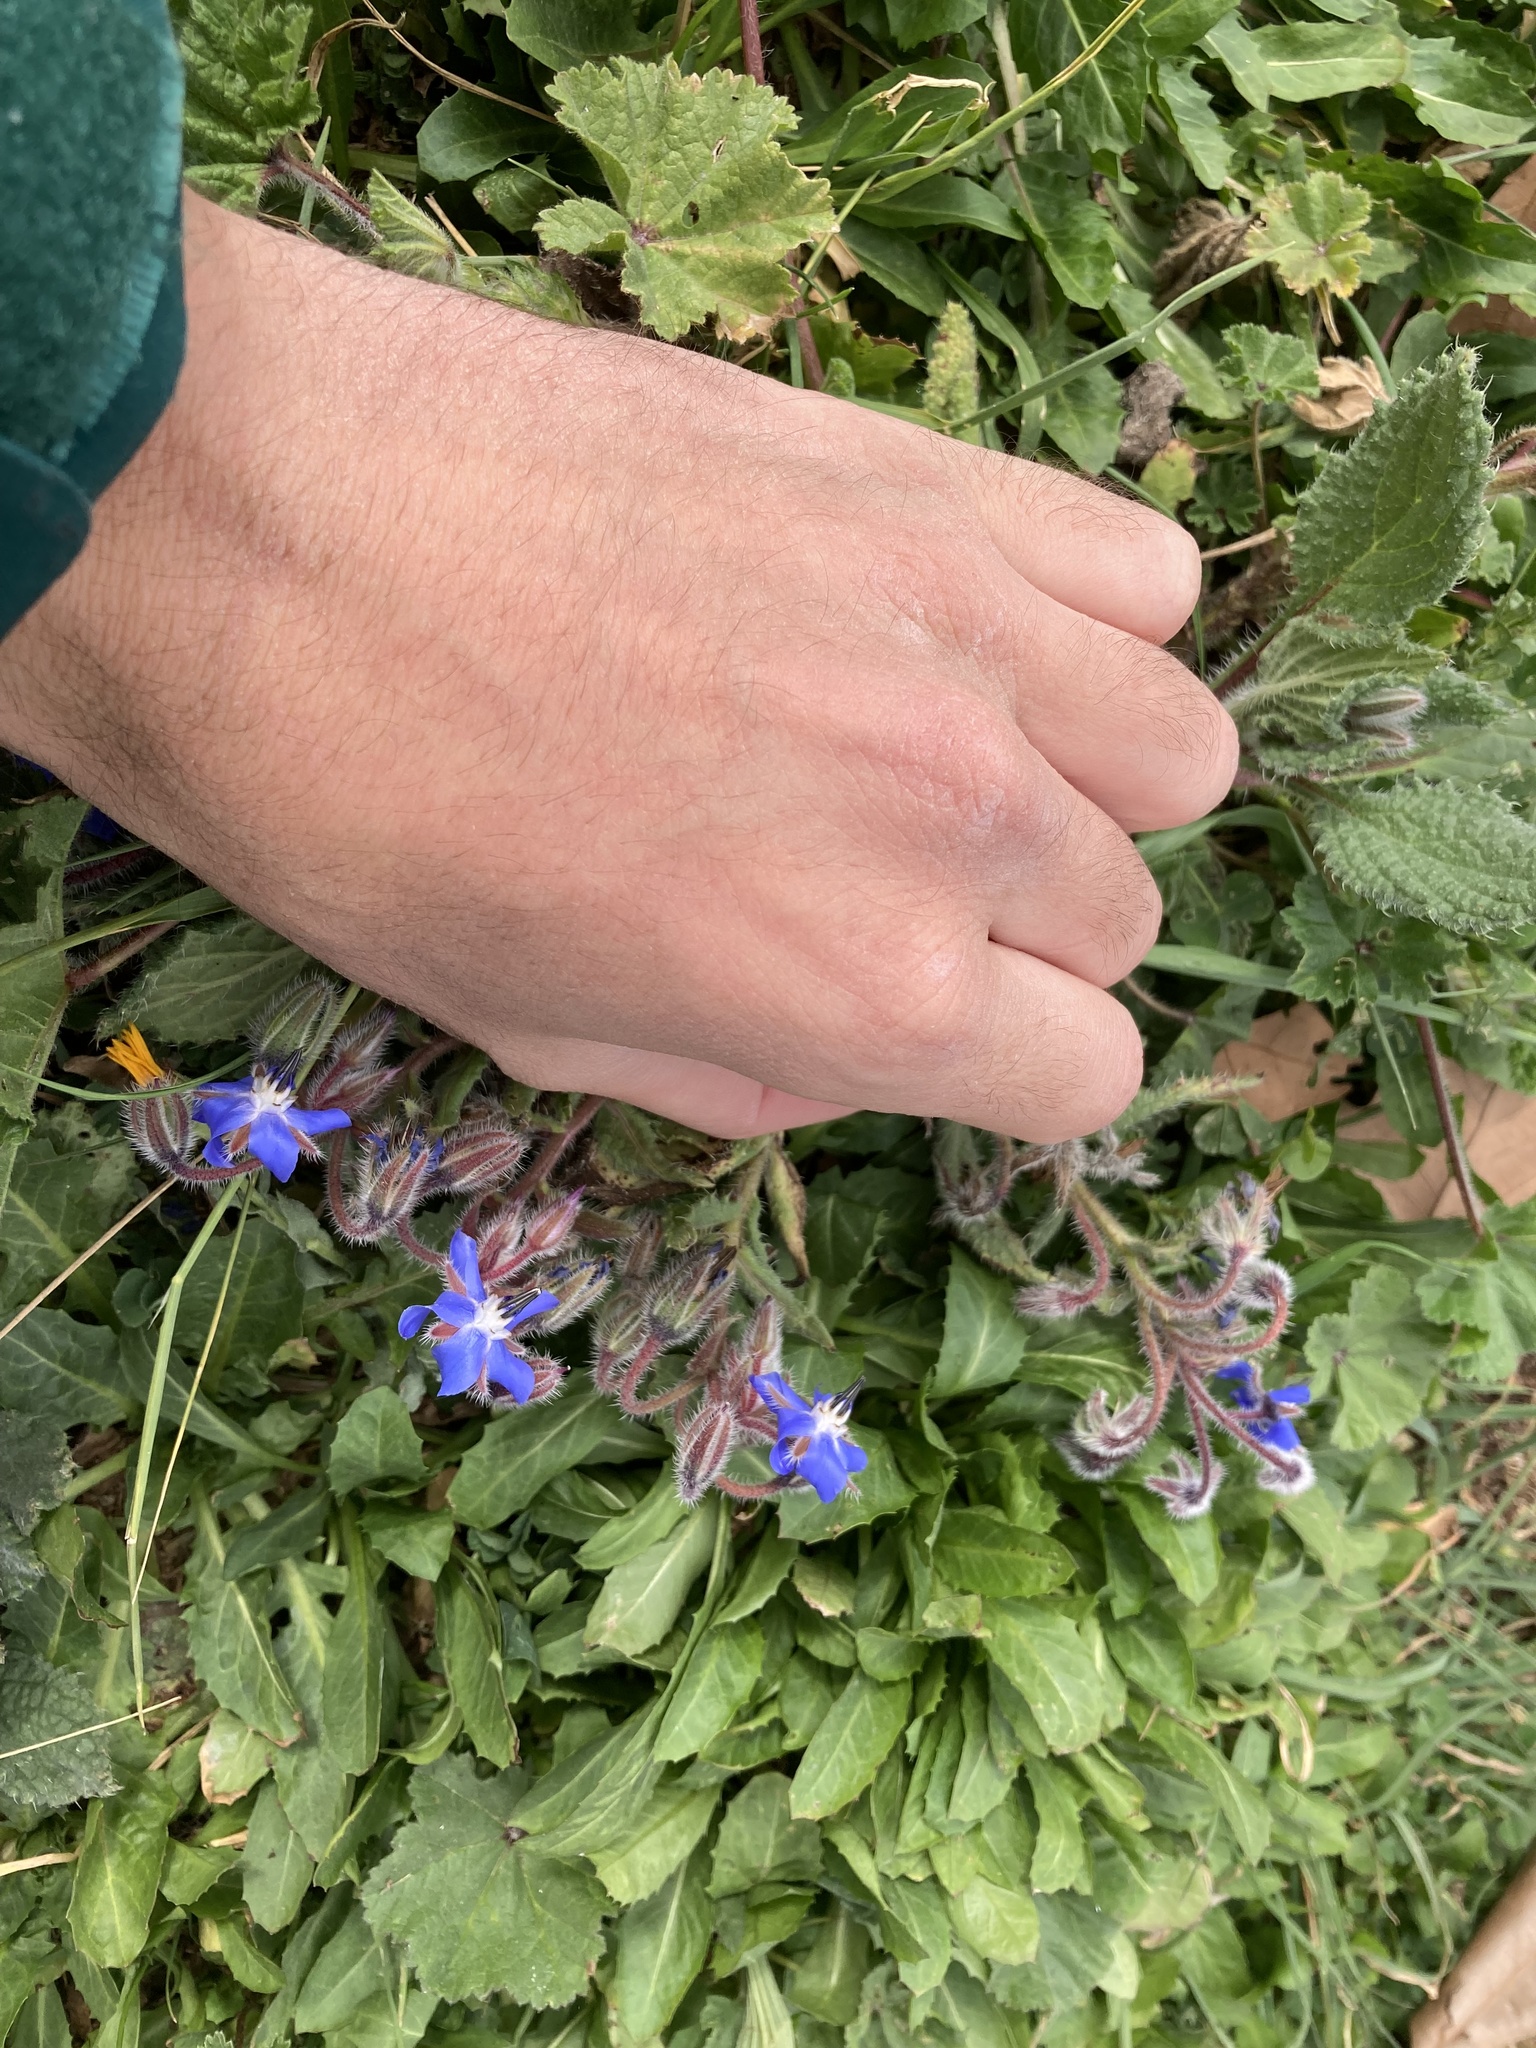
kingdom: Plantae
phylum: Tracheophyta
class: Magnoliopsida
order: Boraginales
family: Boraginaceae
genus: Borago
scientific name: Borago officinalis
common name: Borage
